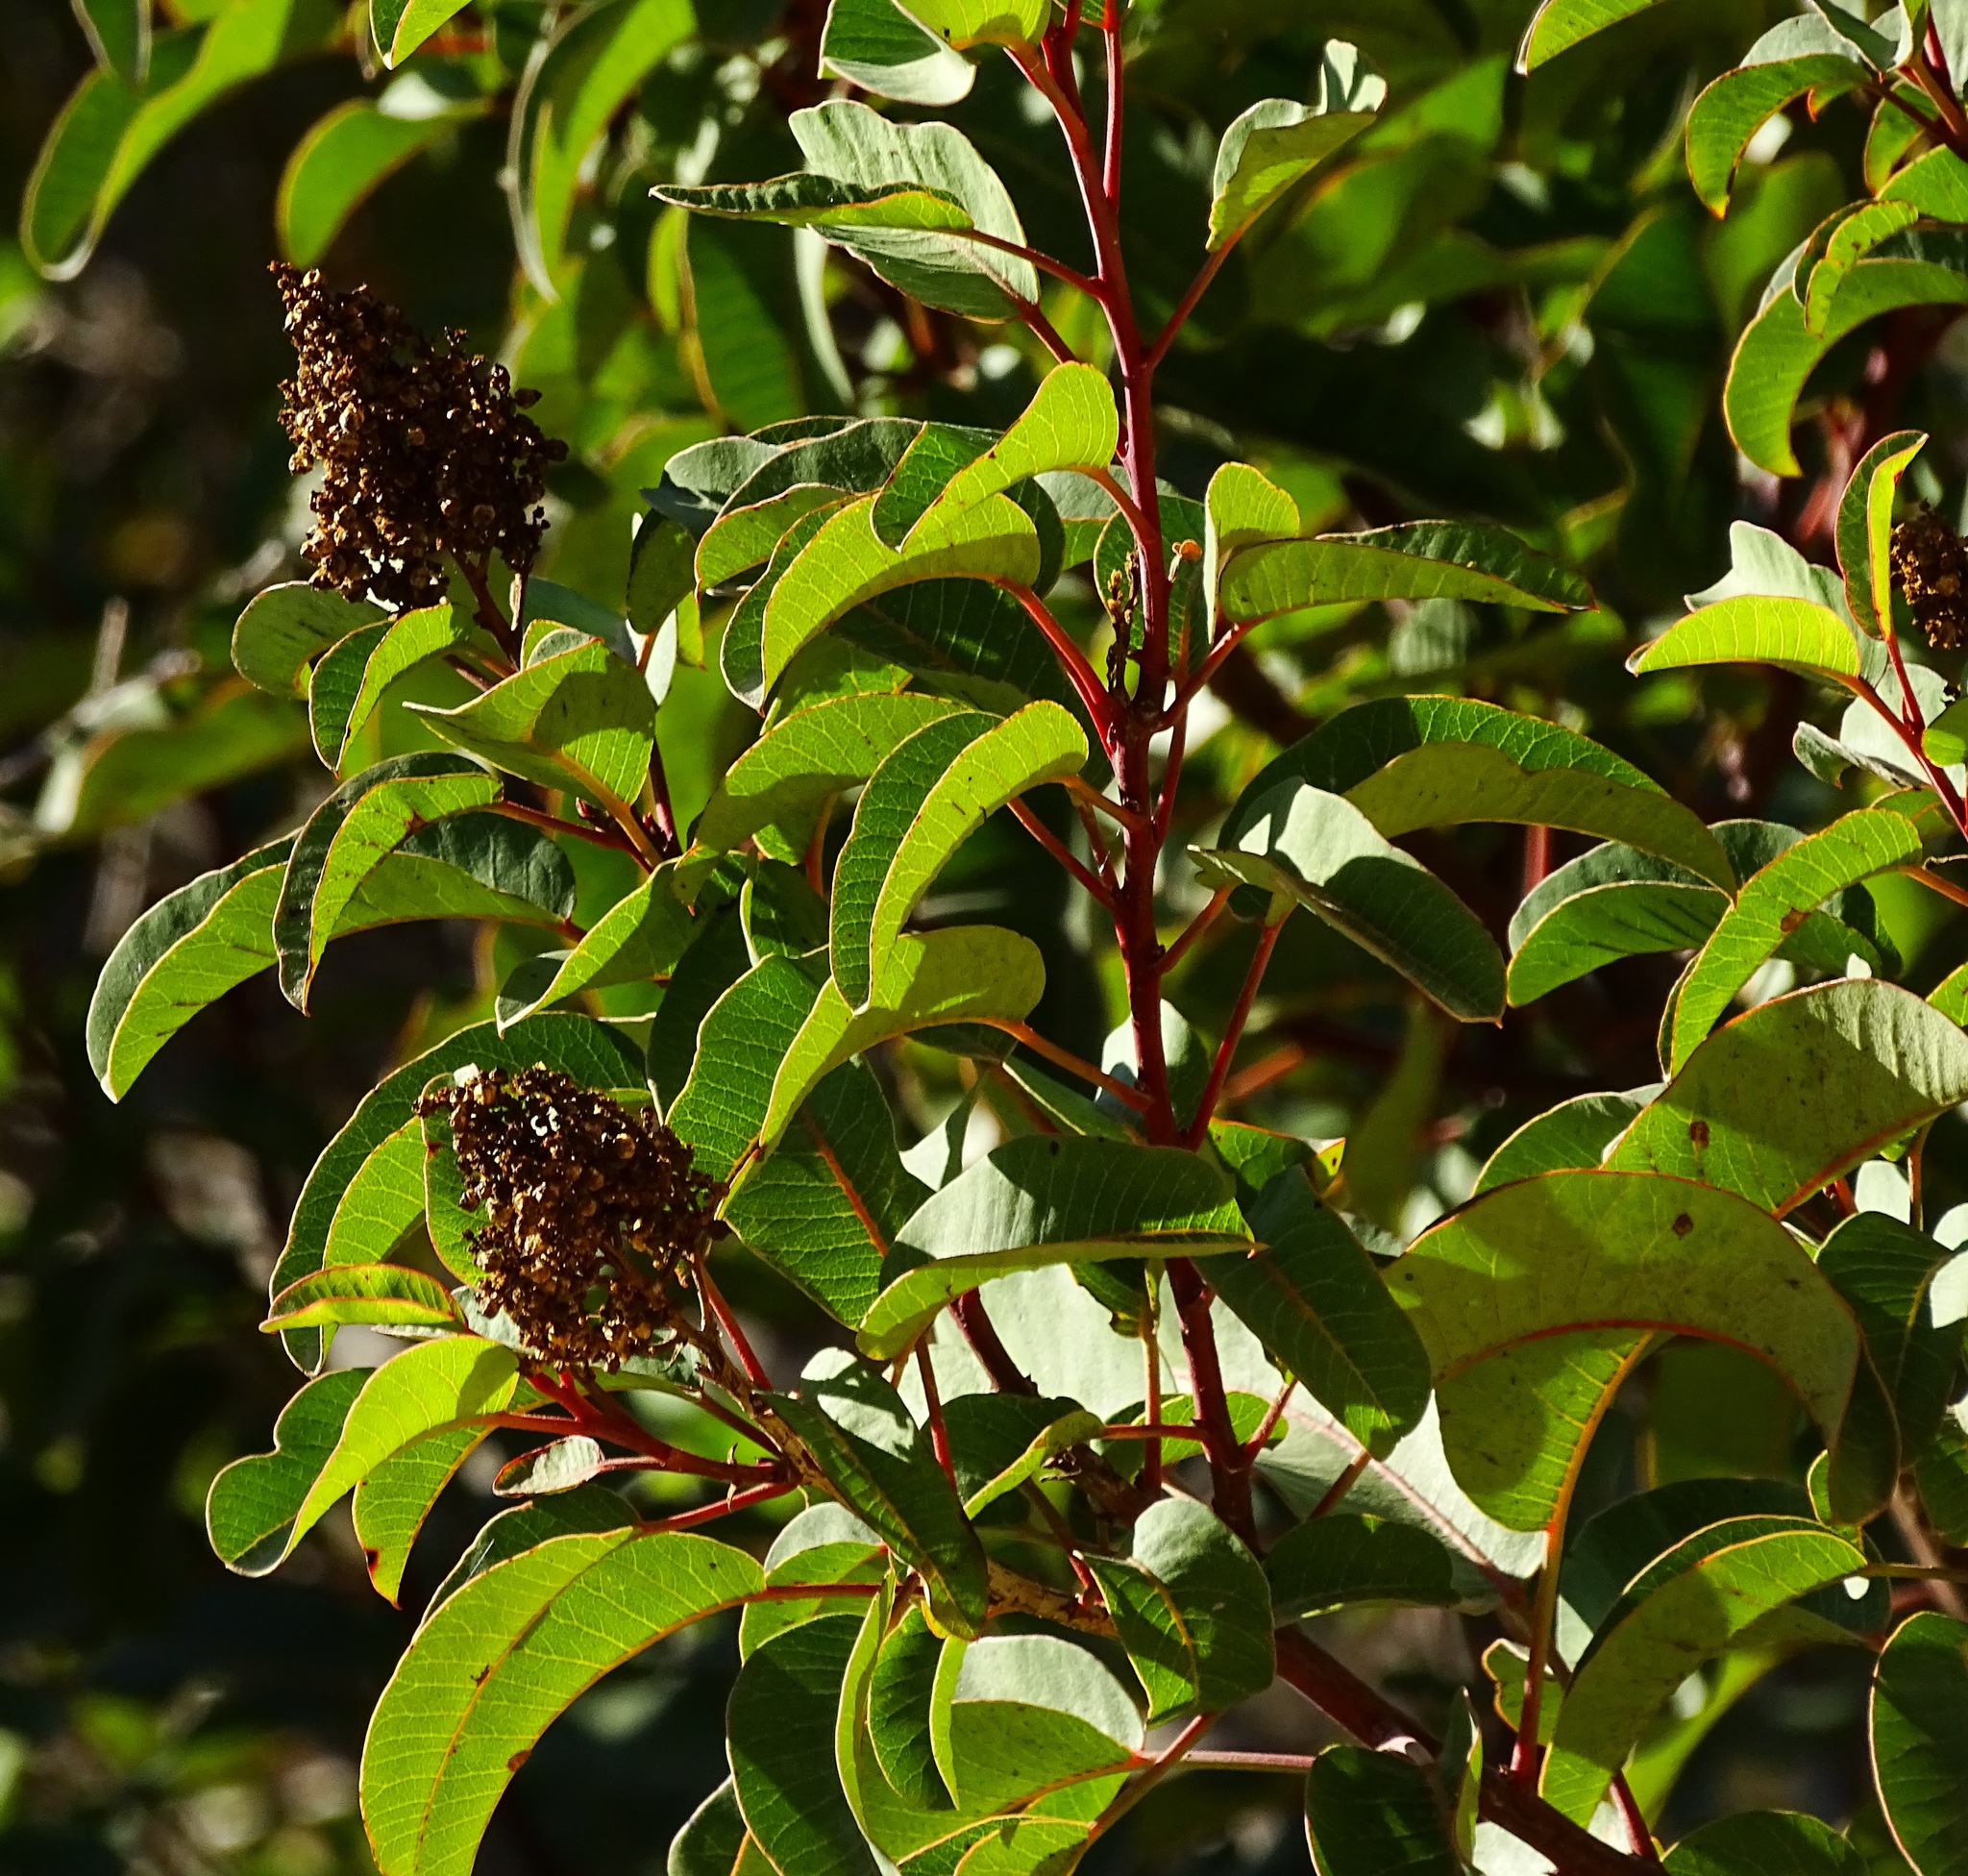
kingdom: Plantae
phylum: Tracheophyta
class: Magnoliopsida
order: Sapindales
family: Anacardiaceae
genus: Malosma
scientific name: Malosma laurina
